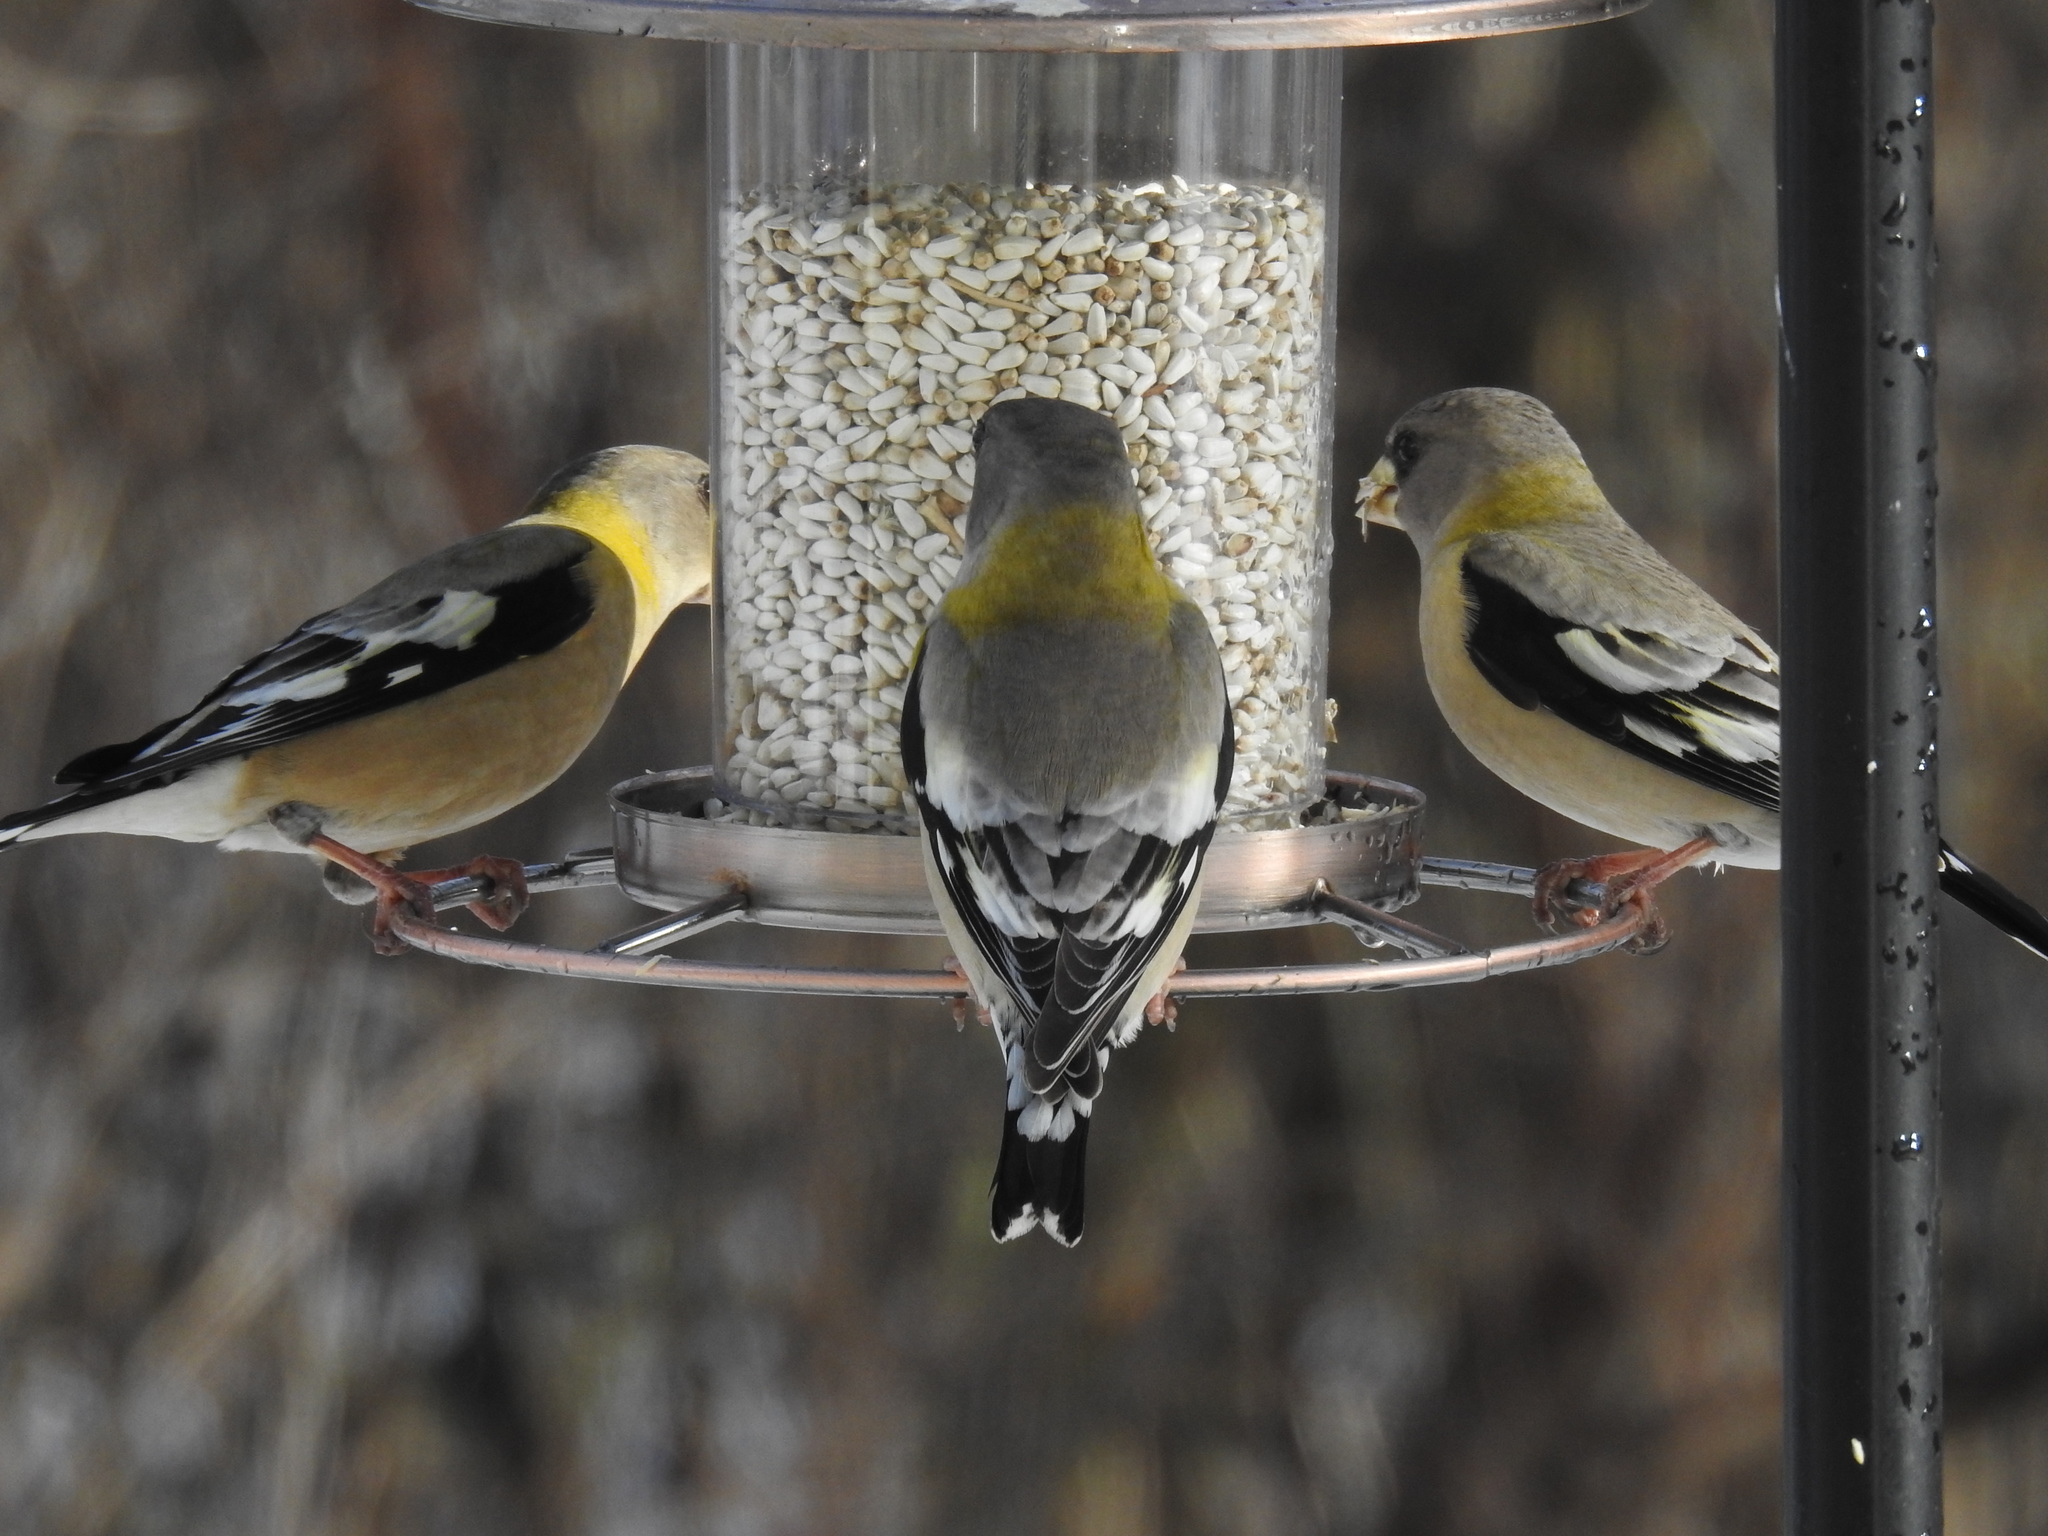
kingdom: Animalia
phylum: Chordata
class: Aves
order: Passeriformes
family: Fringillidae
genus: Hesperiphona
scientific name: Hesperiphona vespertina
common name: Evening grosbeak
